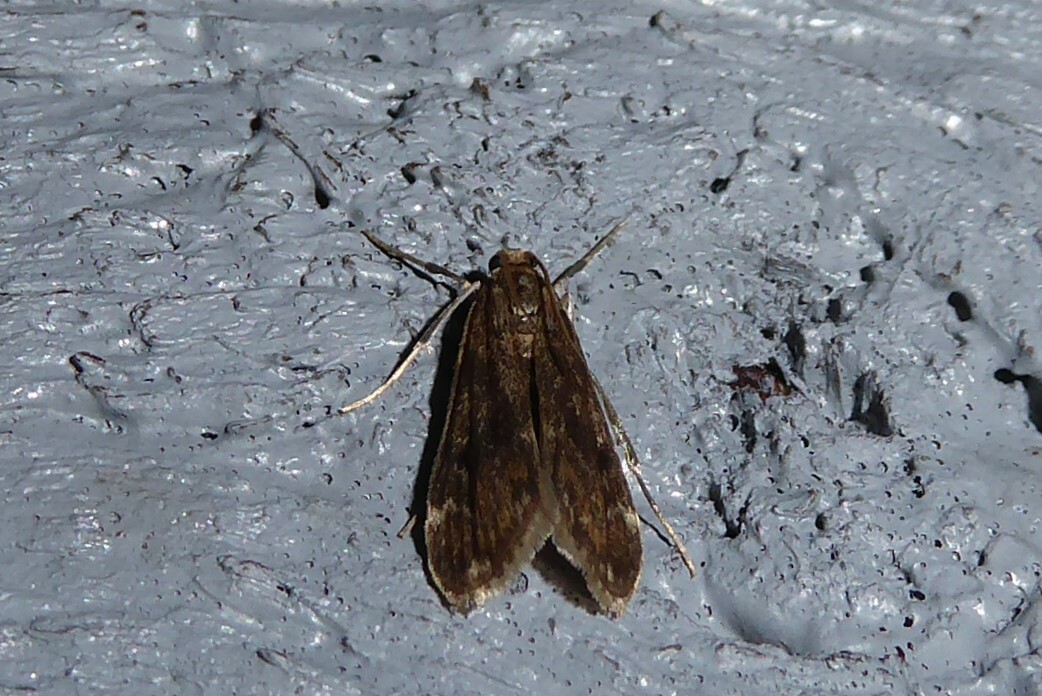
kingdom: Animalia
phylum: Arthropoda
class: Insecta
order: Lepidoptera
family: Crambidae
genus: Hygraula
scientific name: Hygraula nitens
